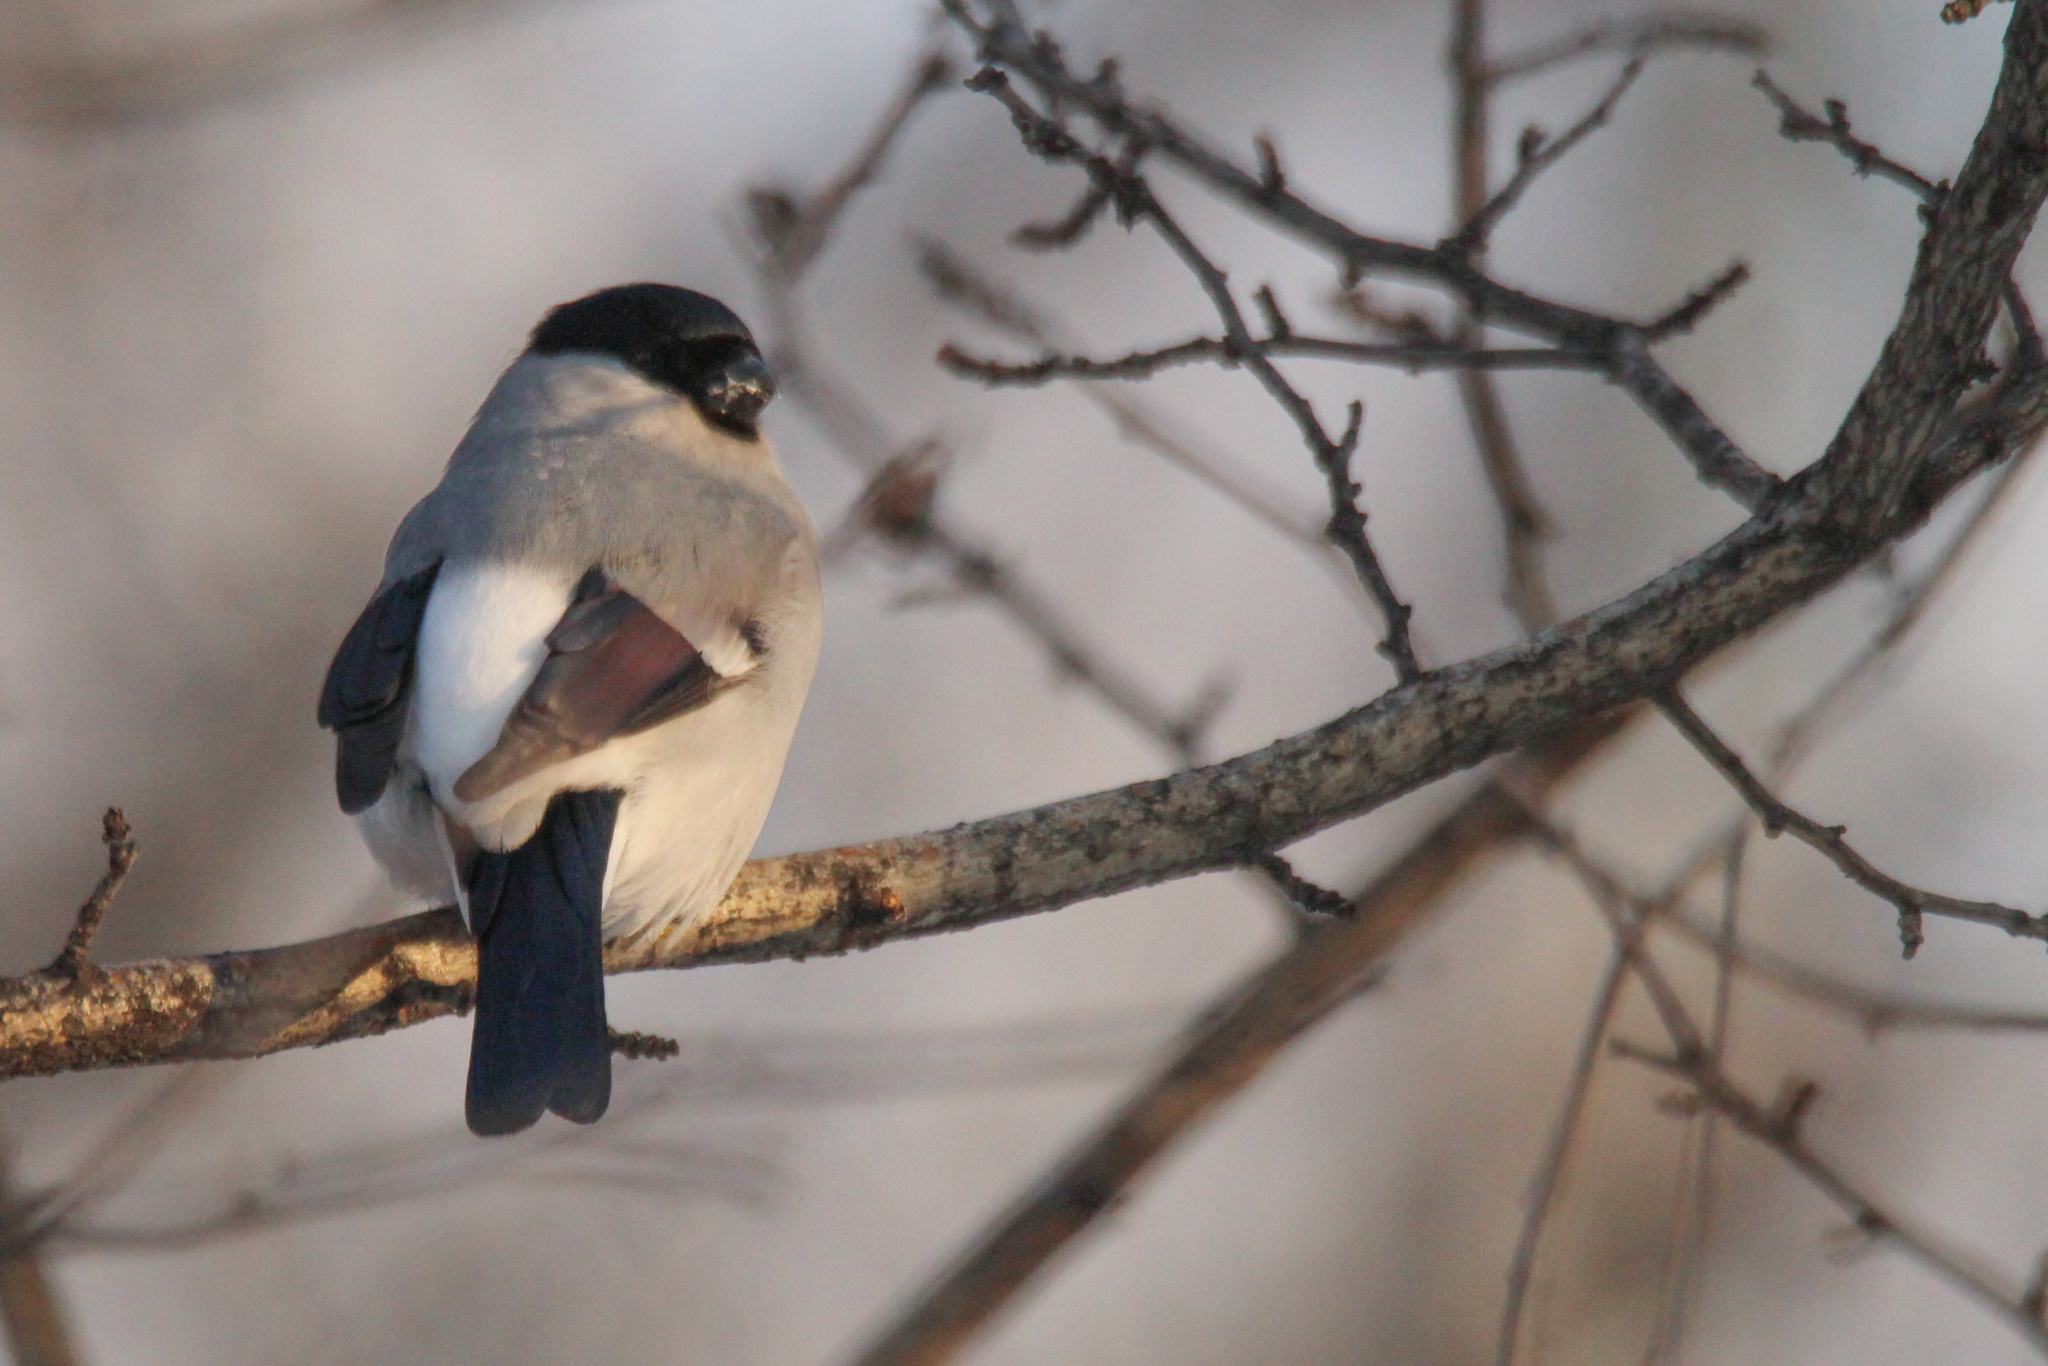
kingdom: Animalia
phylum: Chordata
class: Aves
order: Passeriformes
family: Fringillidae
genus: Pyrrhula
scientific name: Pyrrhula pyrrhula
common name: Eurasian bullfinch
